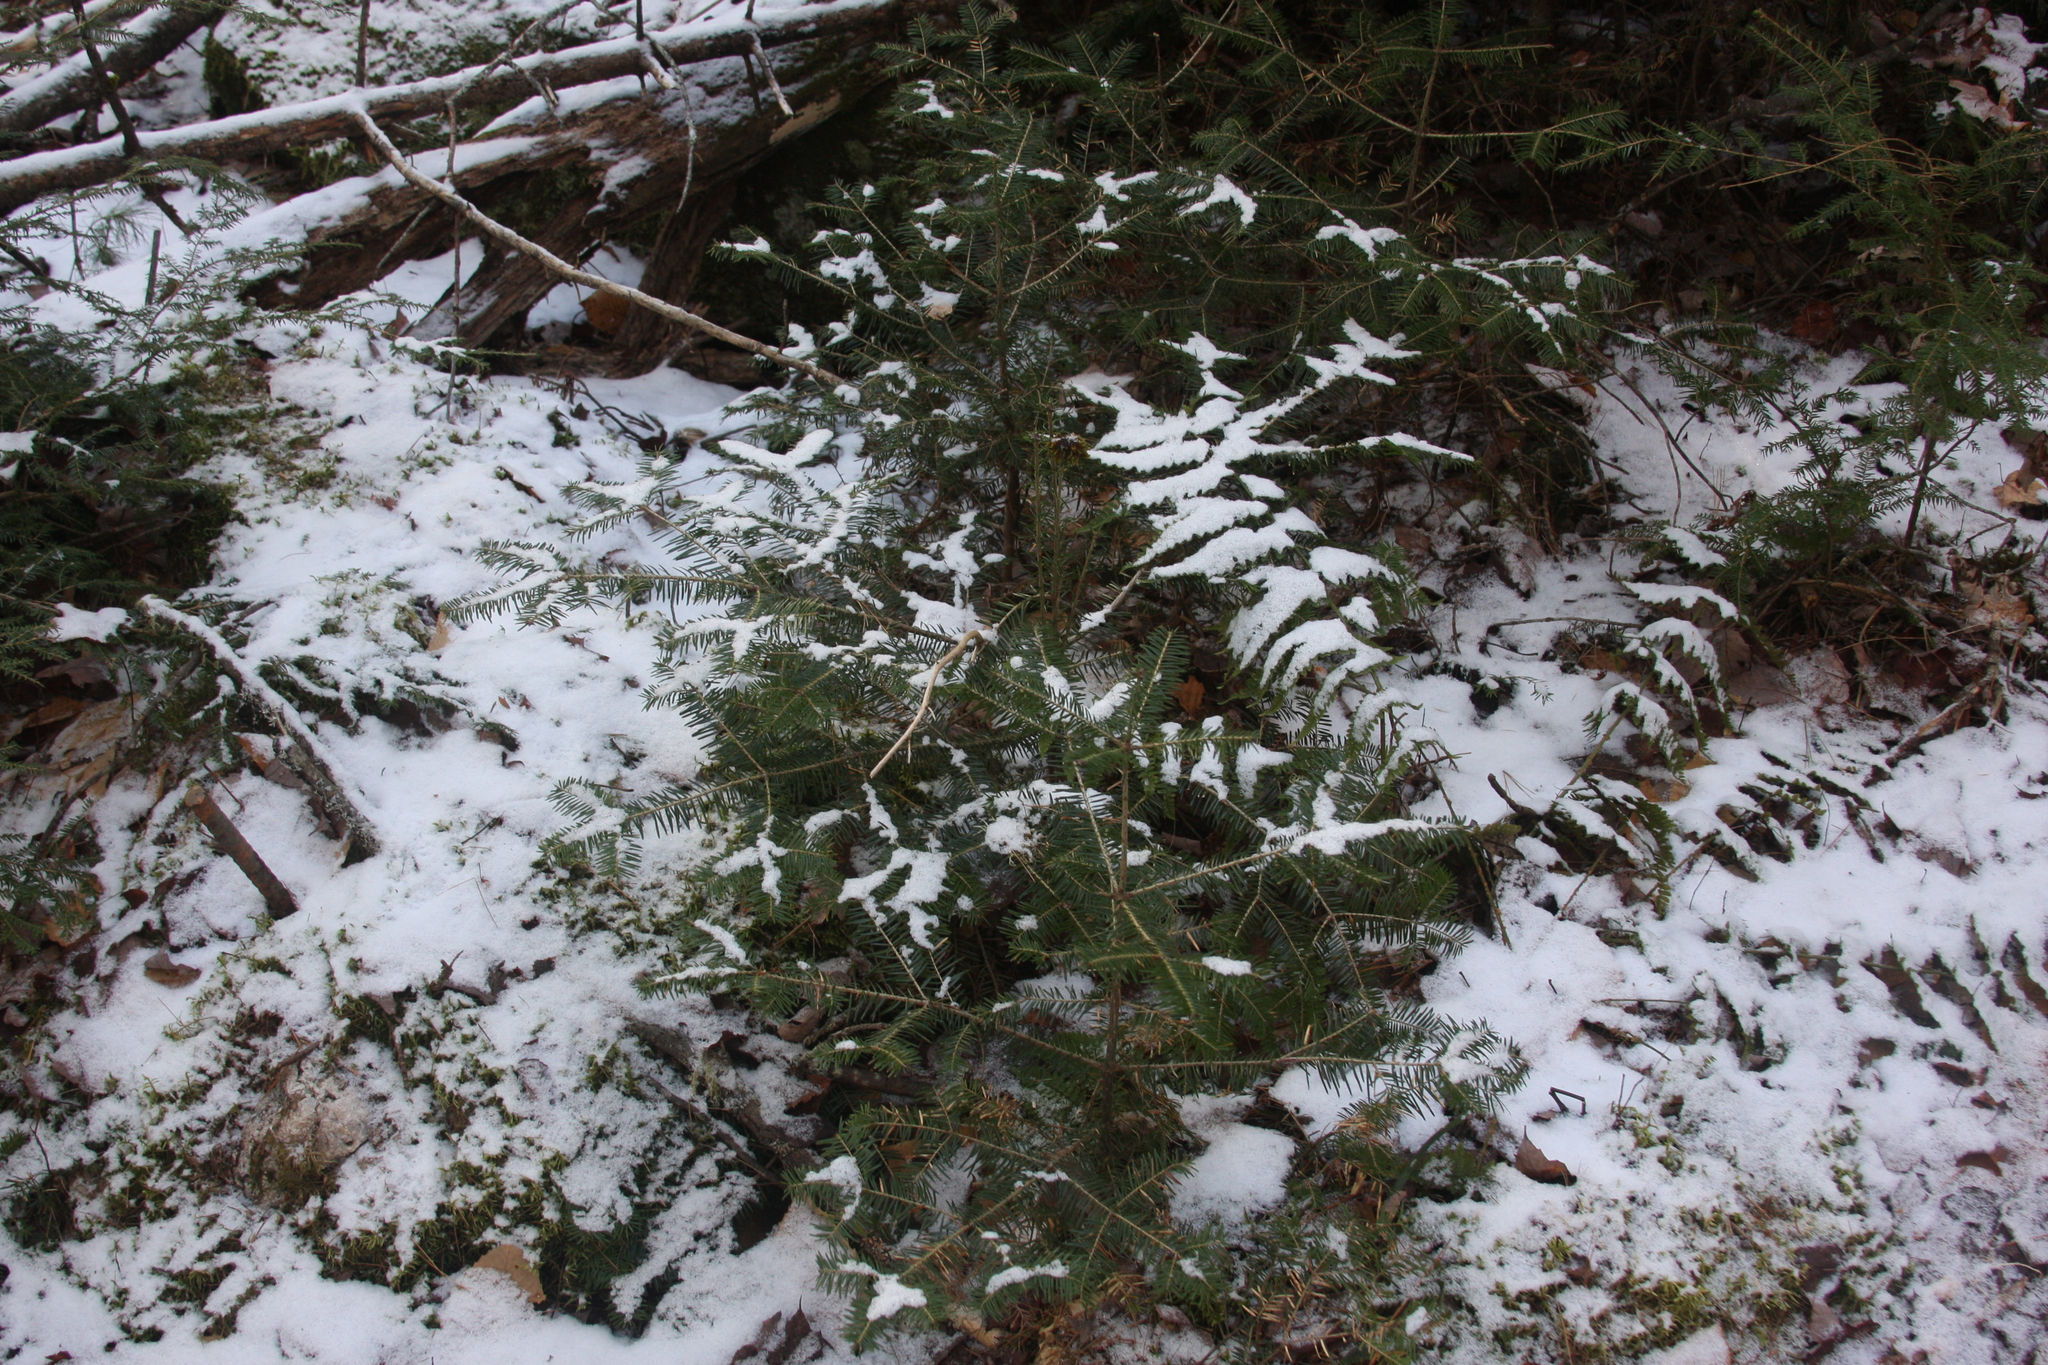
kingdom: Plantae
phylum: Tracheophyta
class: Pinopsida
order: Pinales
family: Pinaceae
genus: Abies
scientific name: Abies balsamea
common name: Balsam fir
